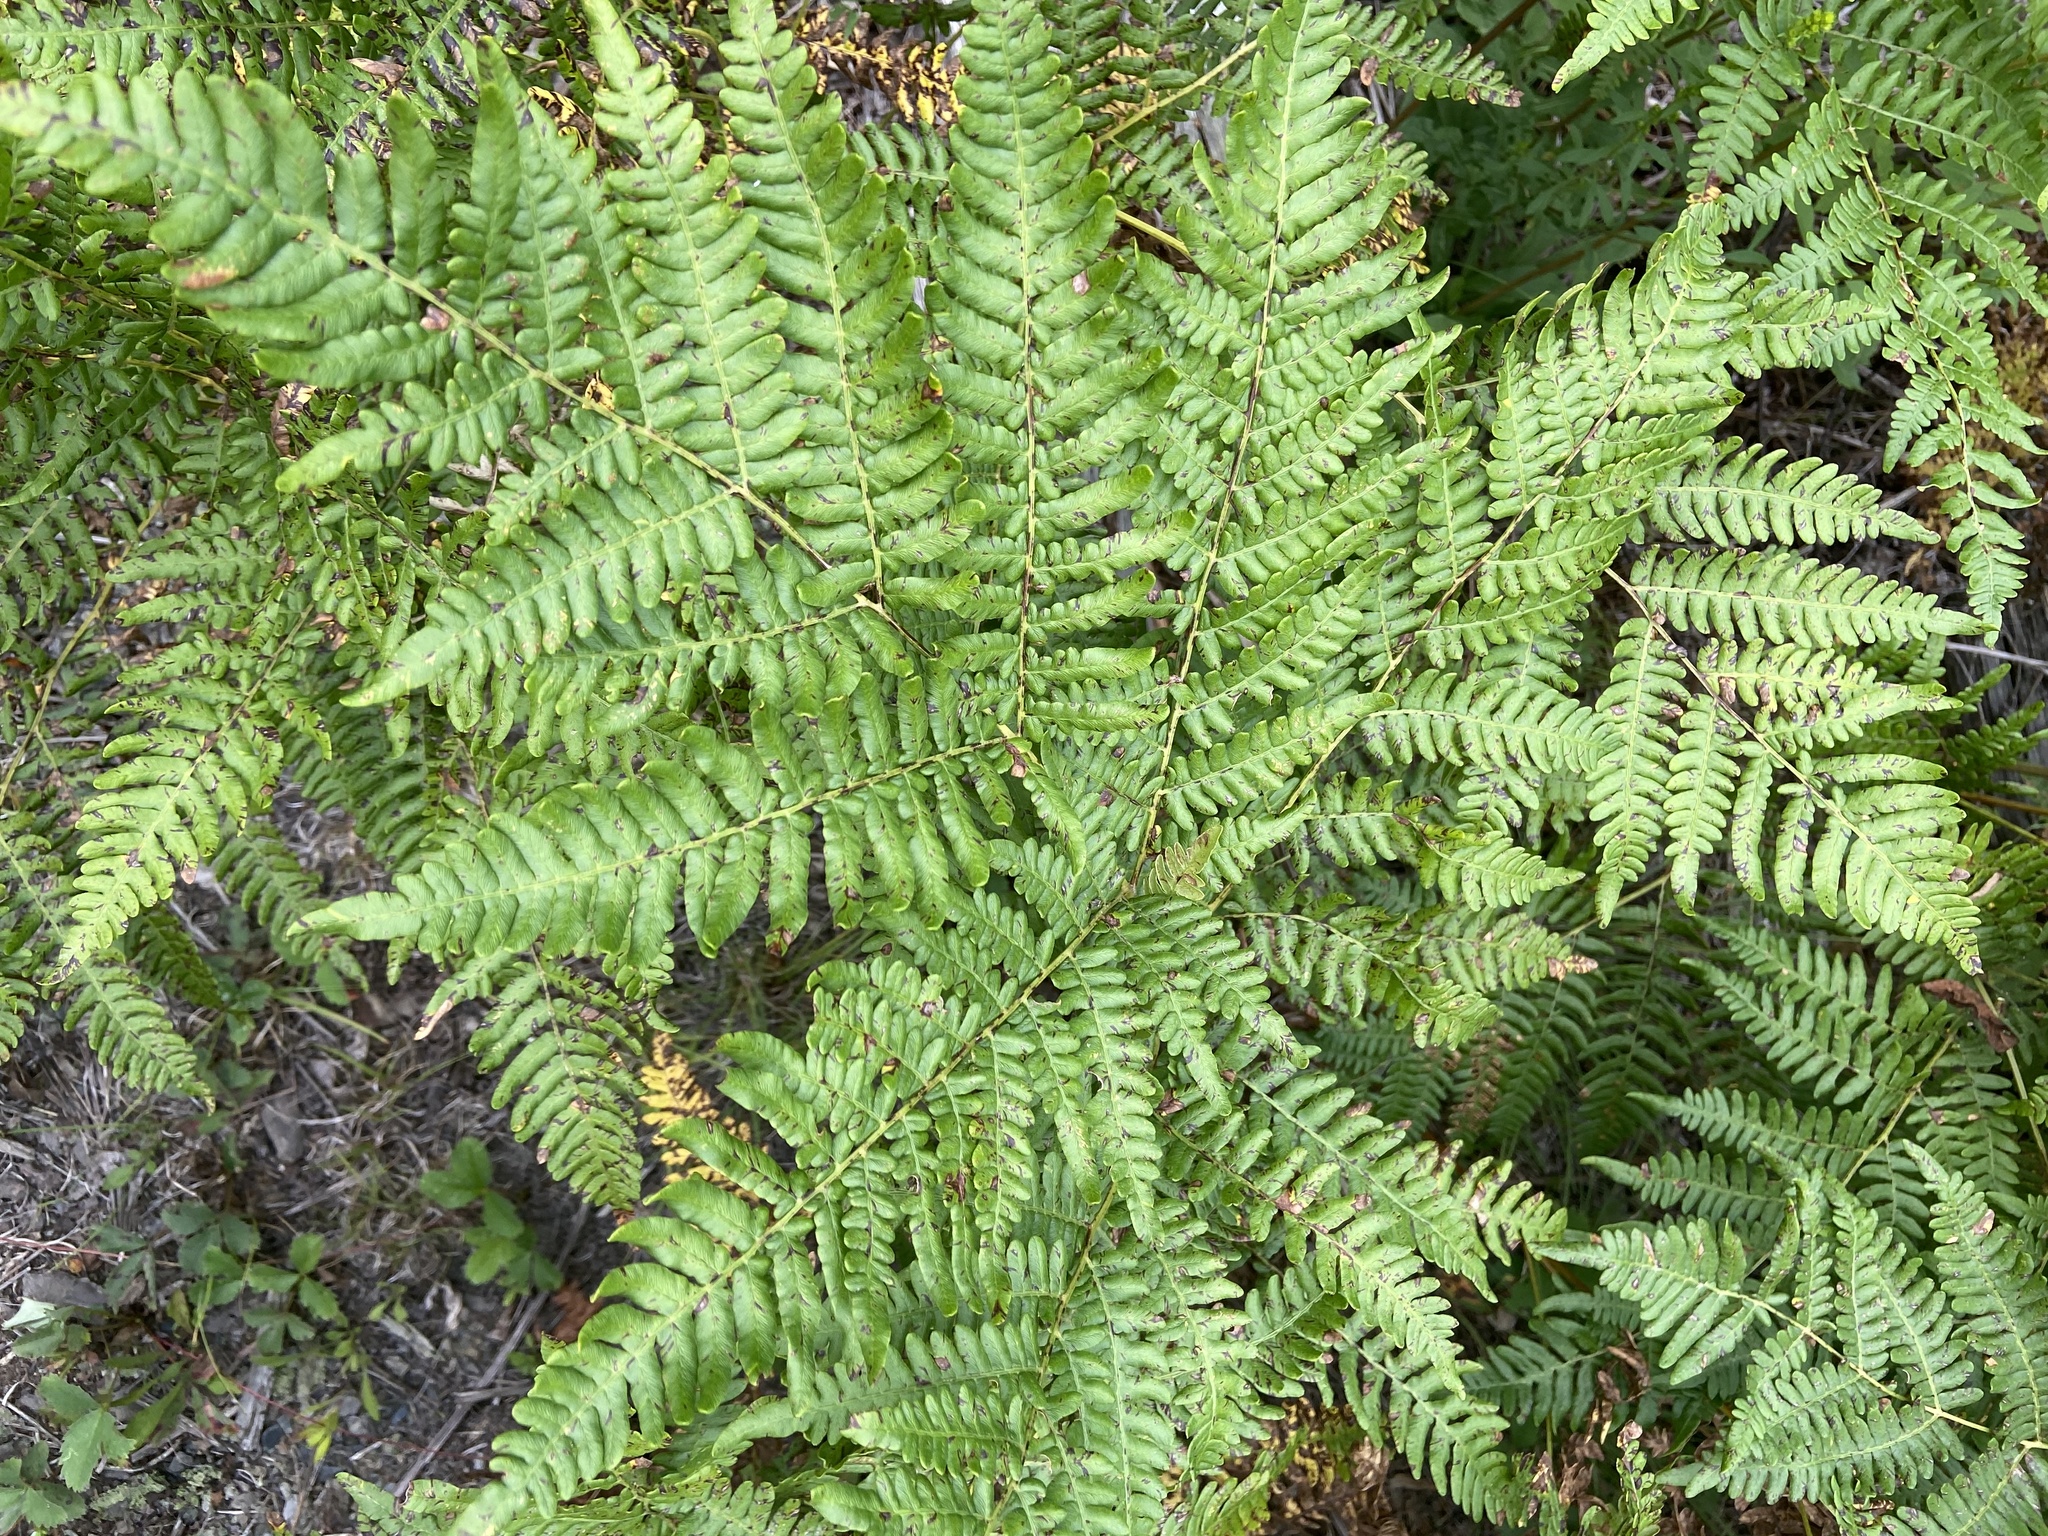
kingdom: Plantae
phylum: Tracheophyta
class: Polypodiopsida
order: Polypodiales
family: Dennstaedtiaceae
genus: Pteridium
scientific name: Pteridium aquilinum
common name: Bracken
